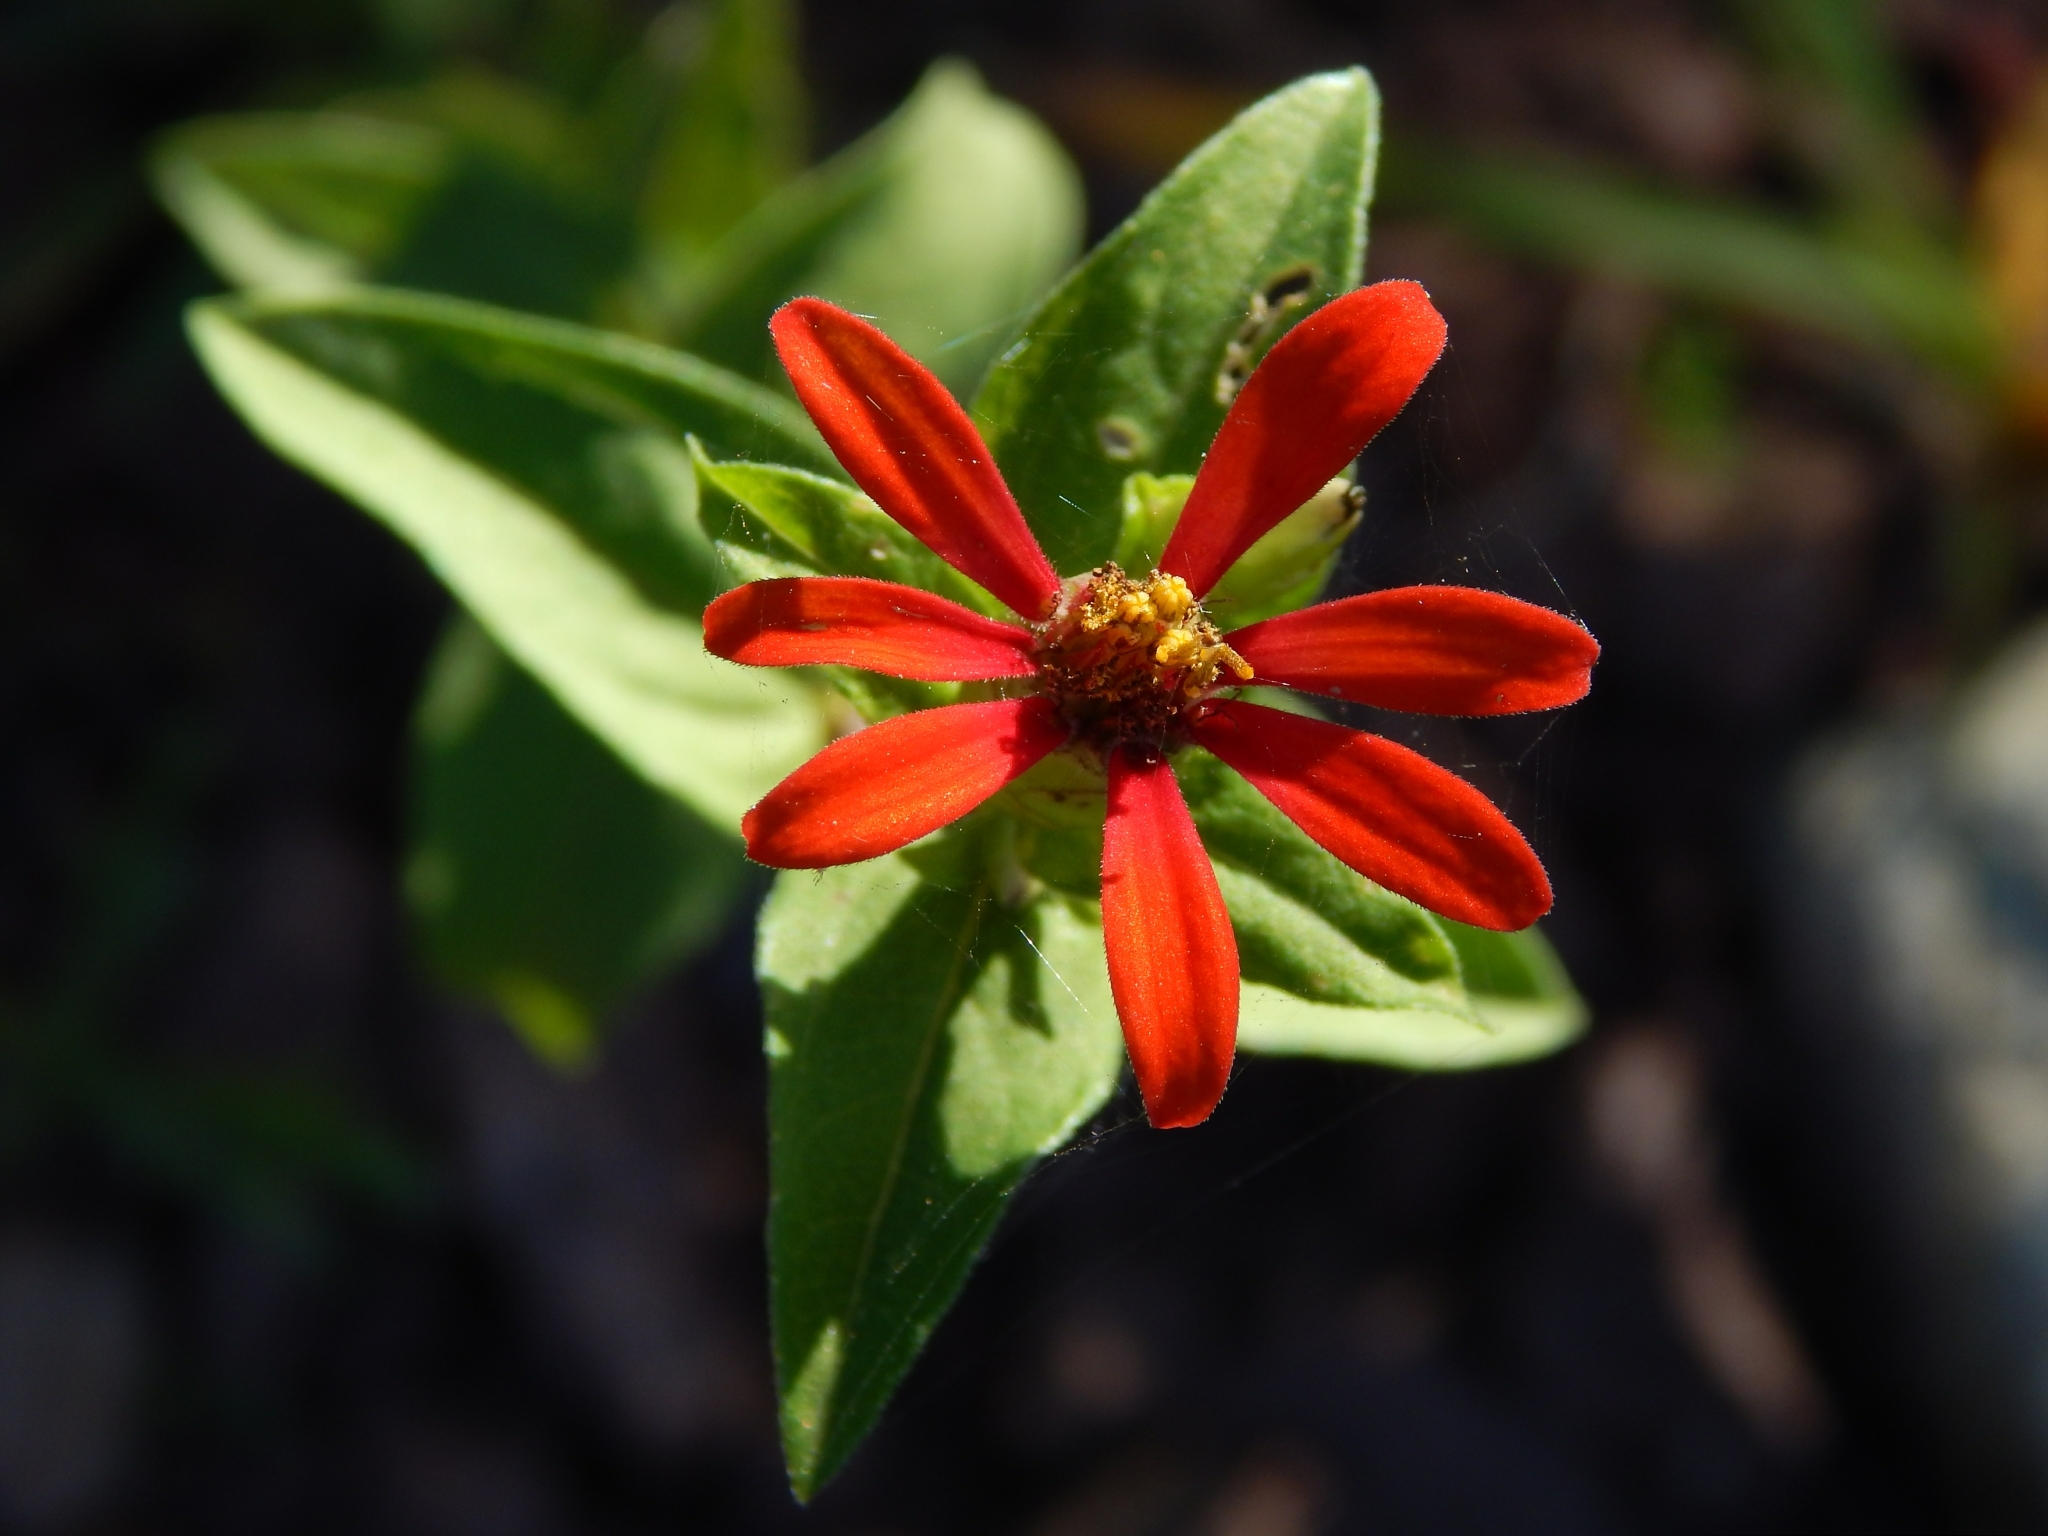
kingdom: Plantae
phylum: Tracheophyta
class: Magnoliopsida
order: Asterales
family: Asteraceae
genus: Zinnia
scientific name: Zinnia peruviana
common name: Peruvian zinnia
